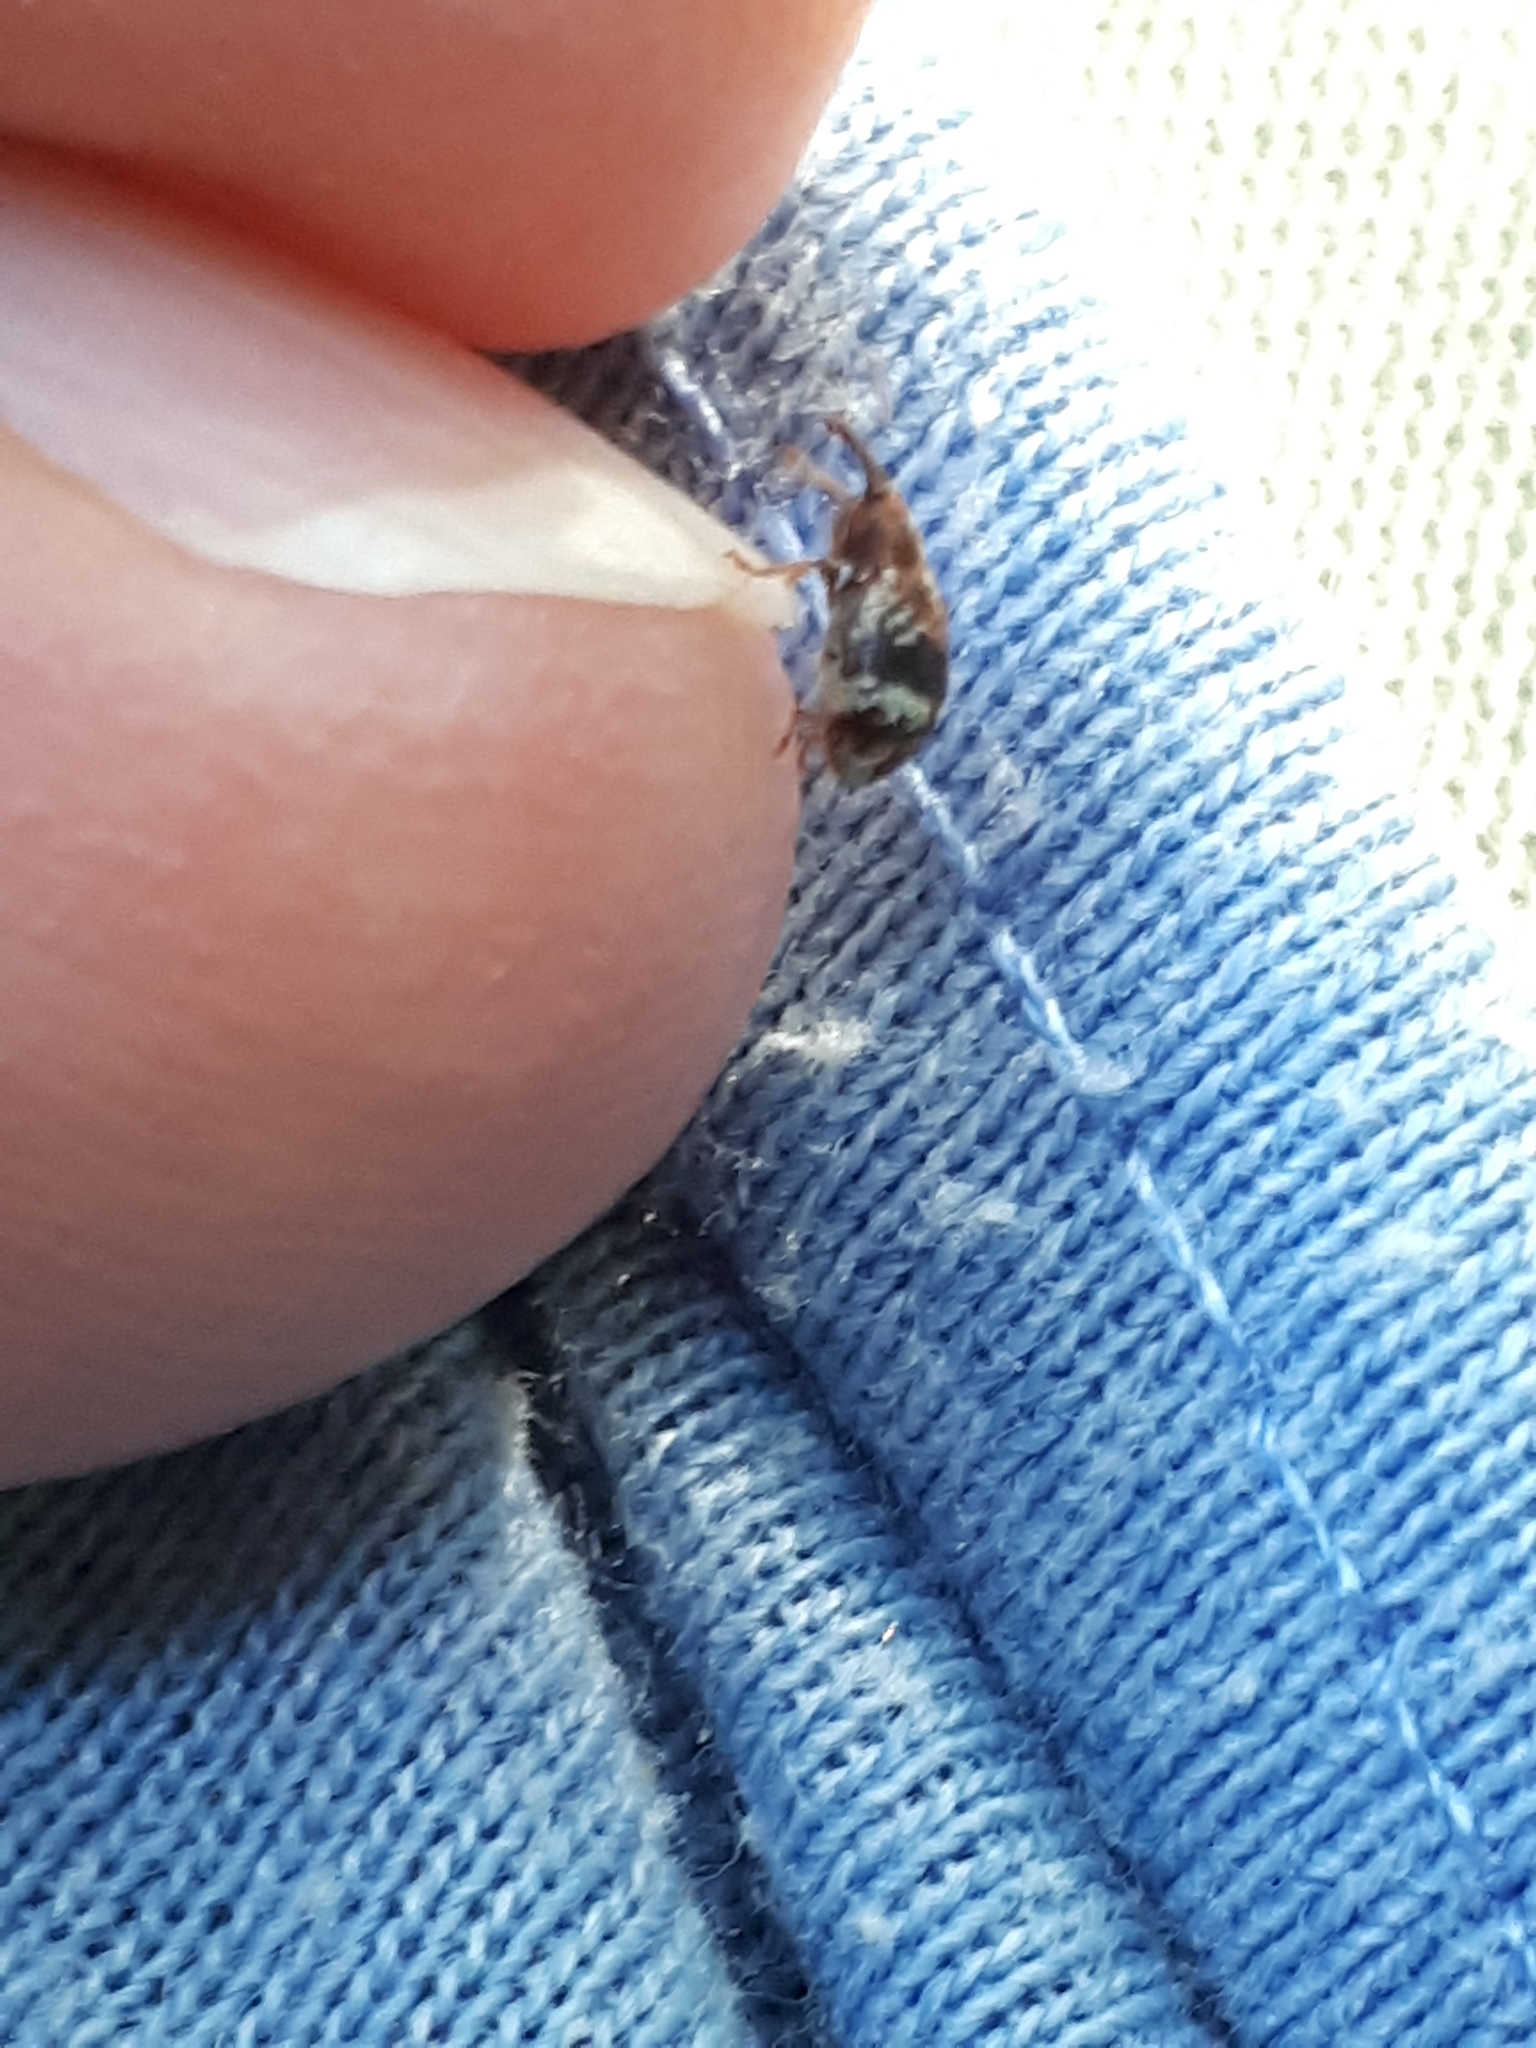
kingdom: Animalia
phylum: Arthropoda
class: Insecta
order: Coleoptera
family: Curculionidae
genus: Anthonomus
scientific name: Anthonomus pedicularius
